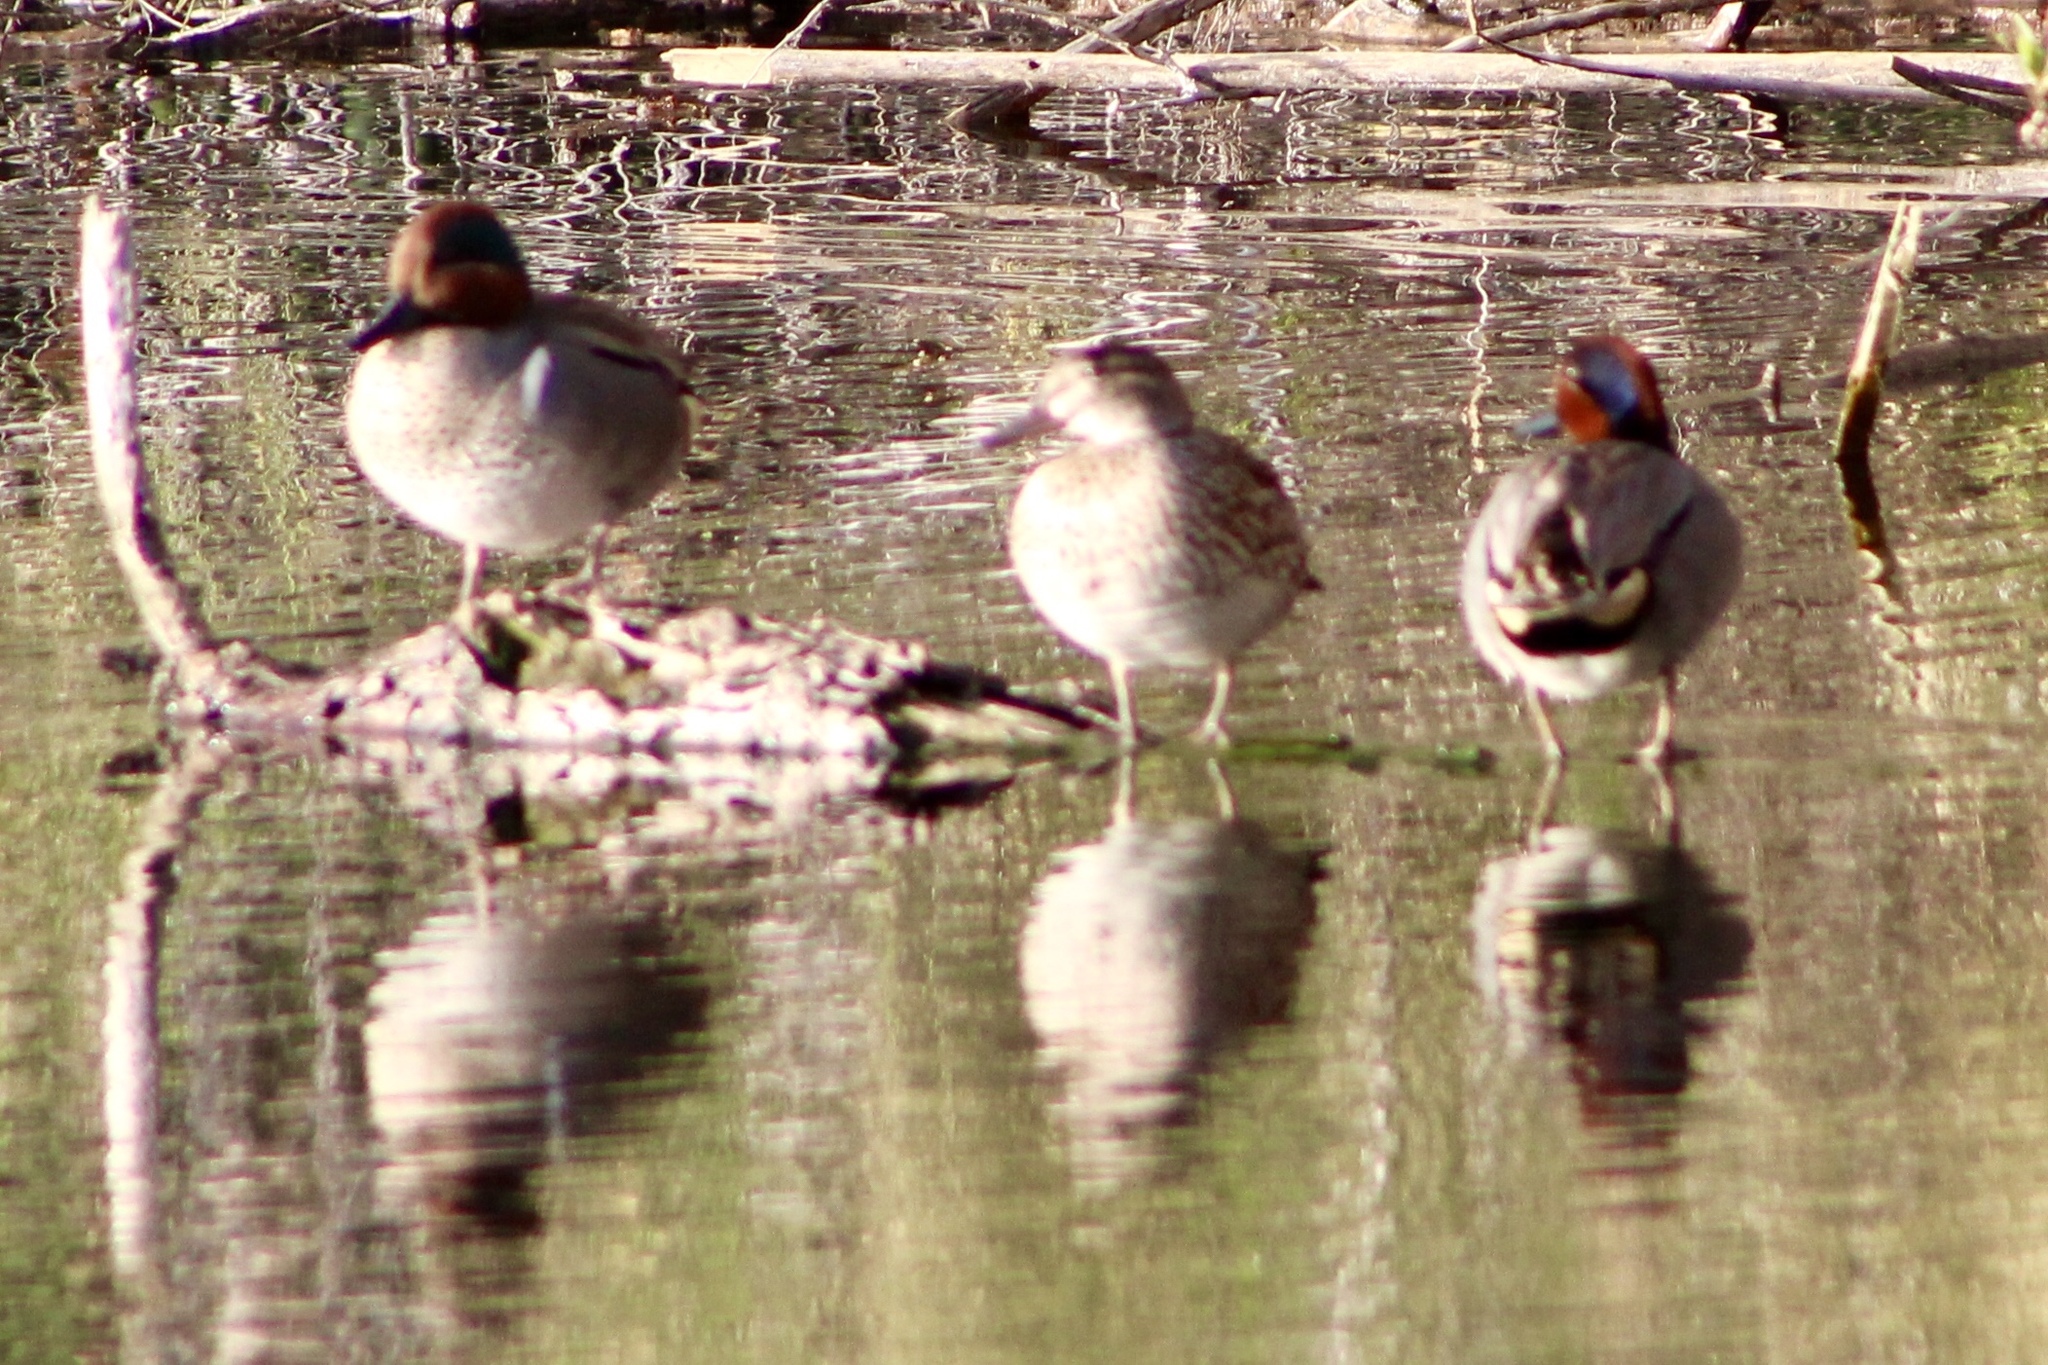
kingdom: Animalia
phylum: Chordata
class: Aves
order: Anseriformes
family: Anatidae
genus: Anas
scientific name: Anas crecca
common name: Eurasian teal
